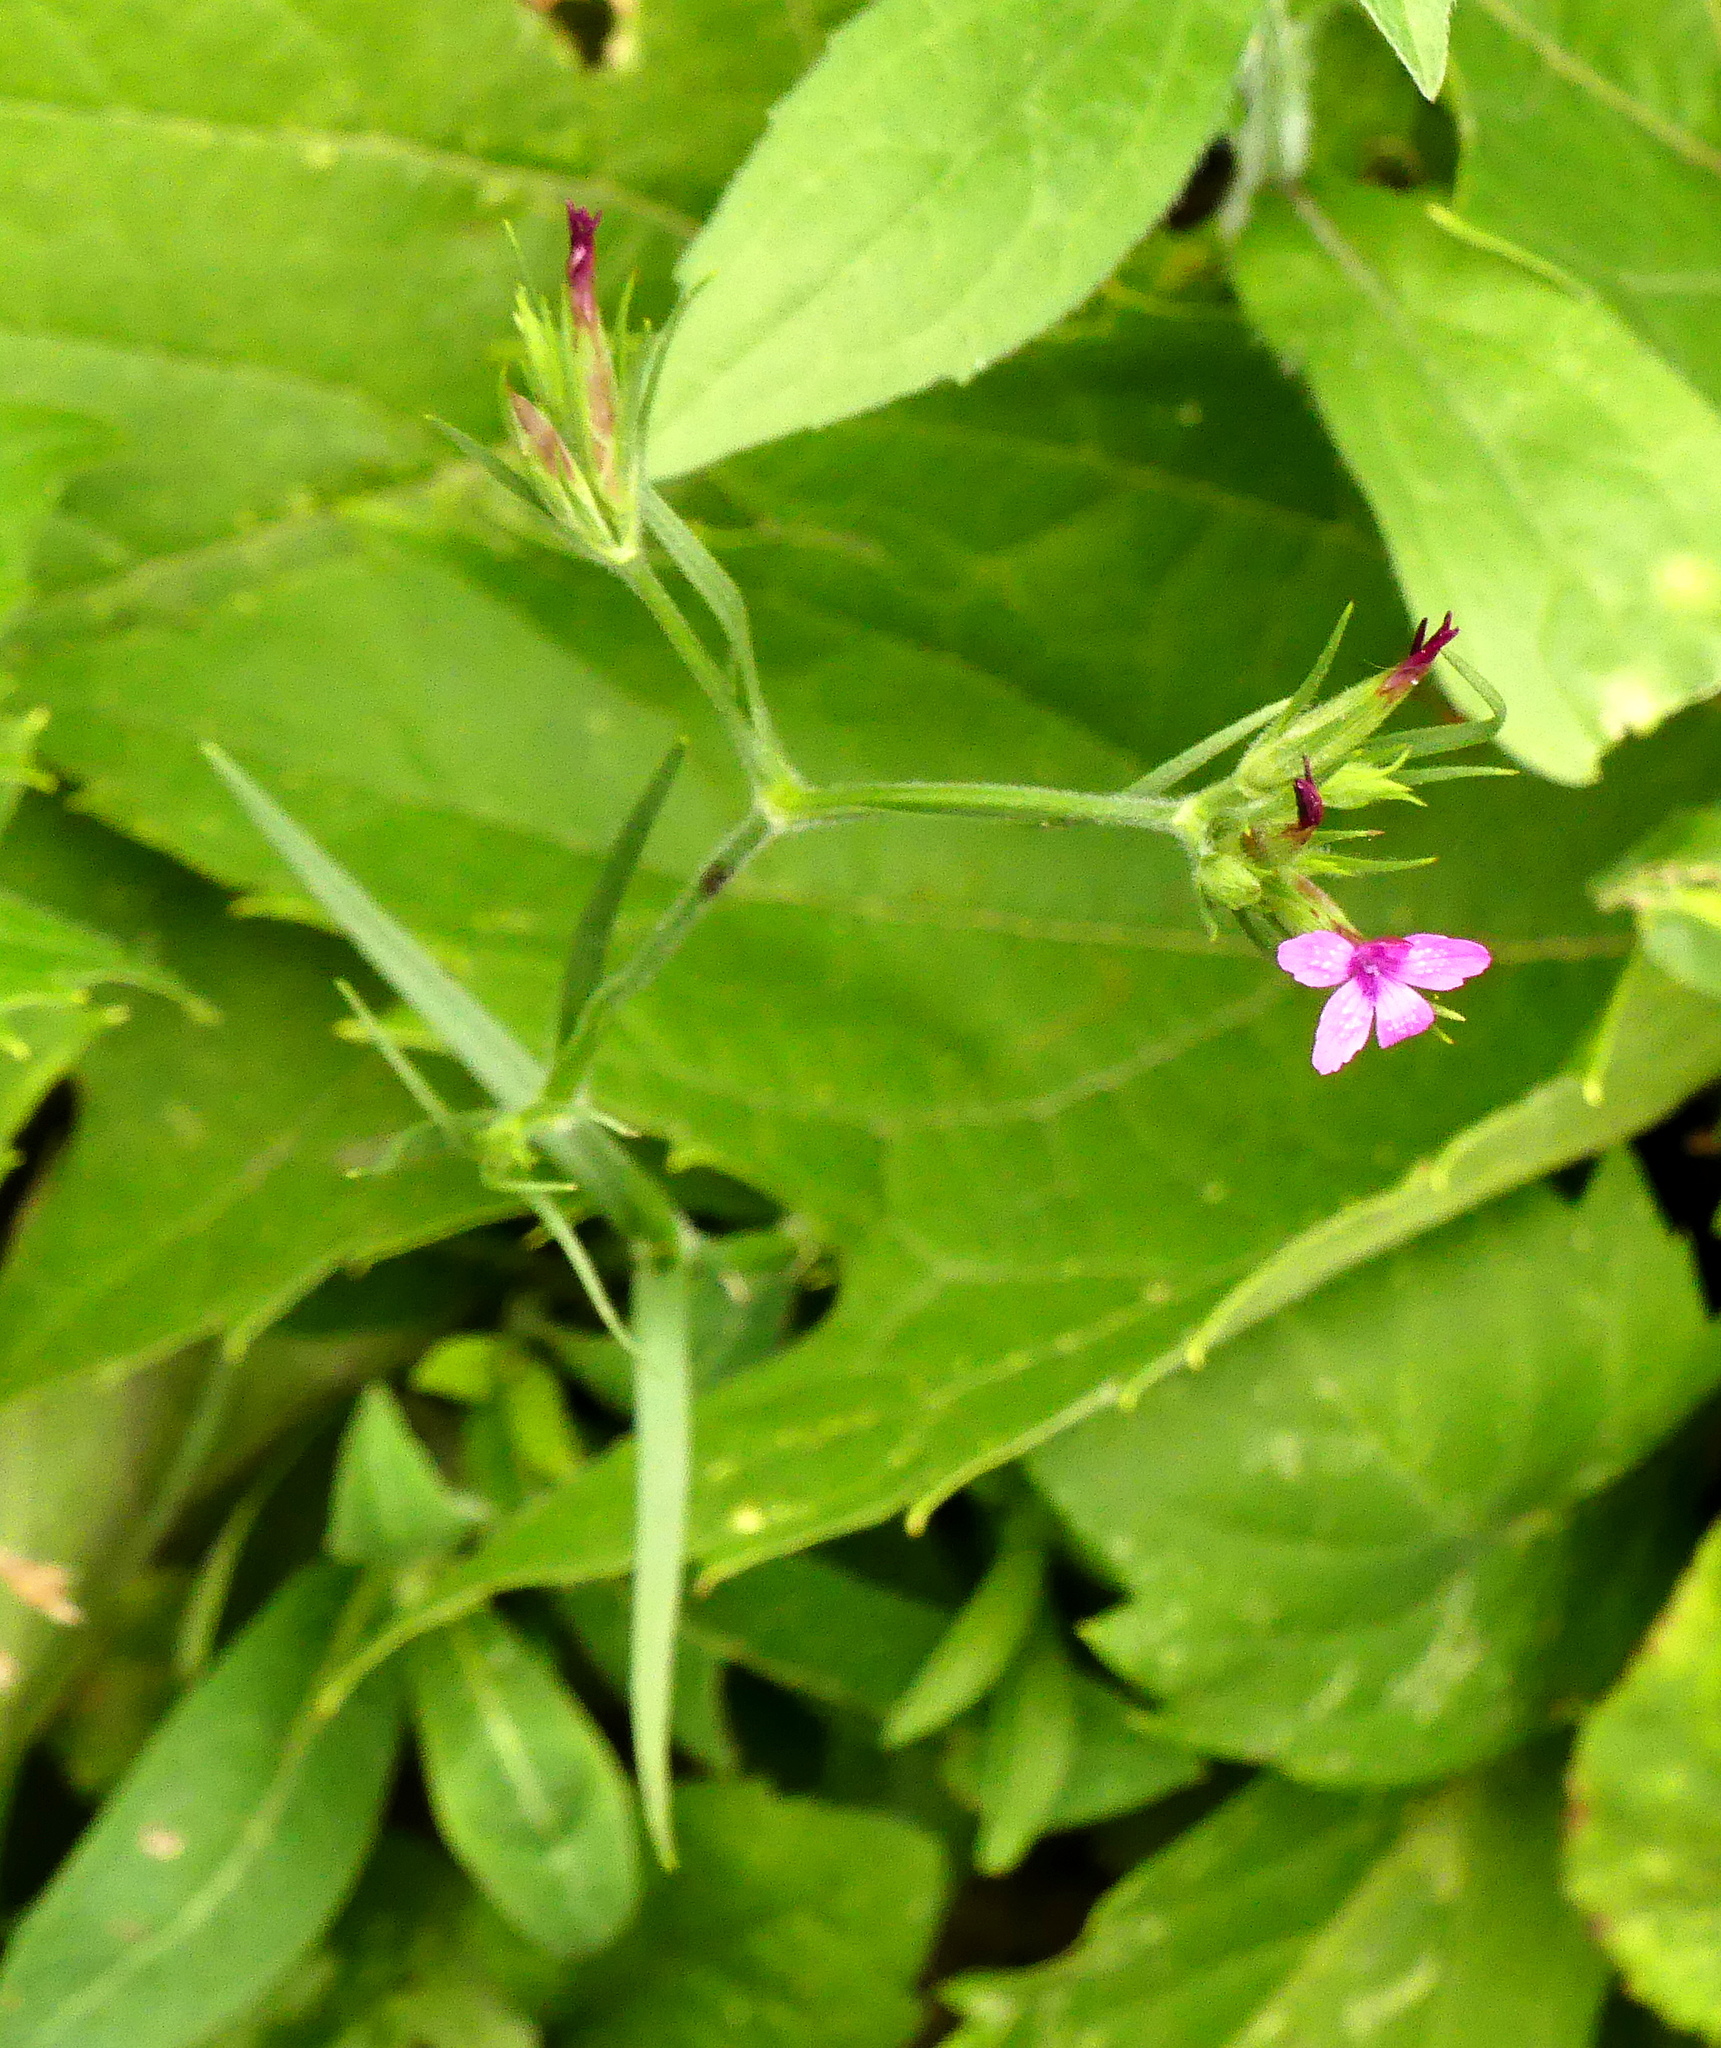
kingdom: Plantae
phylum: Tracheophyta
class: Magnoliopsida
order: Caryophyllales
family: Caryophyllaceae
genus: Dianthus
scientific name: Dianthus armeria
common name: Deptford pink
